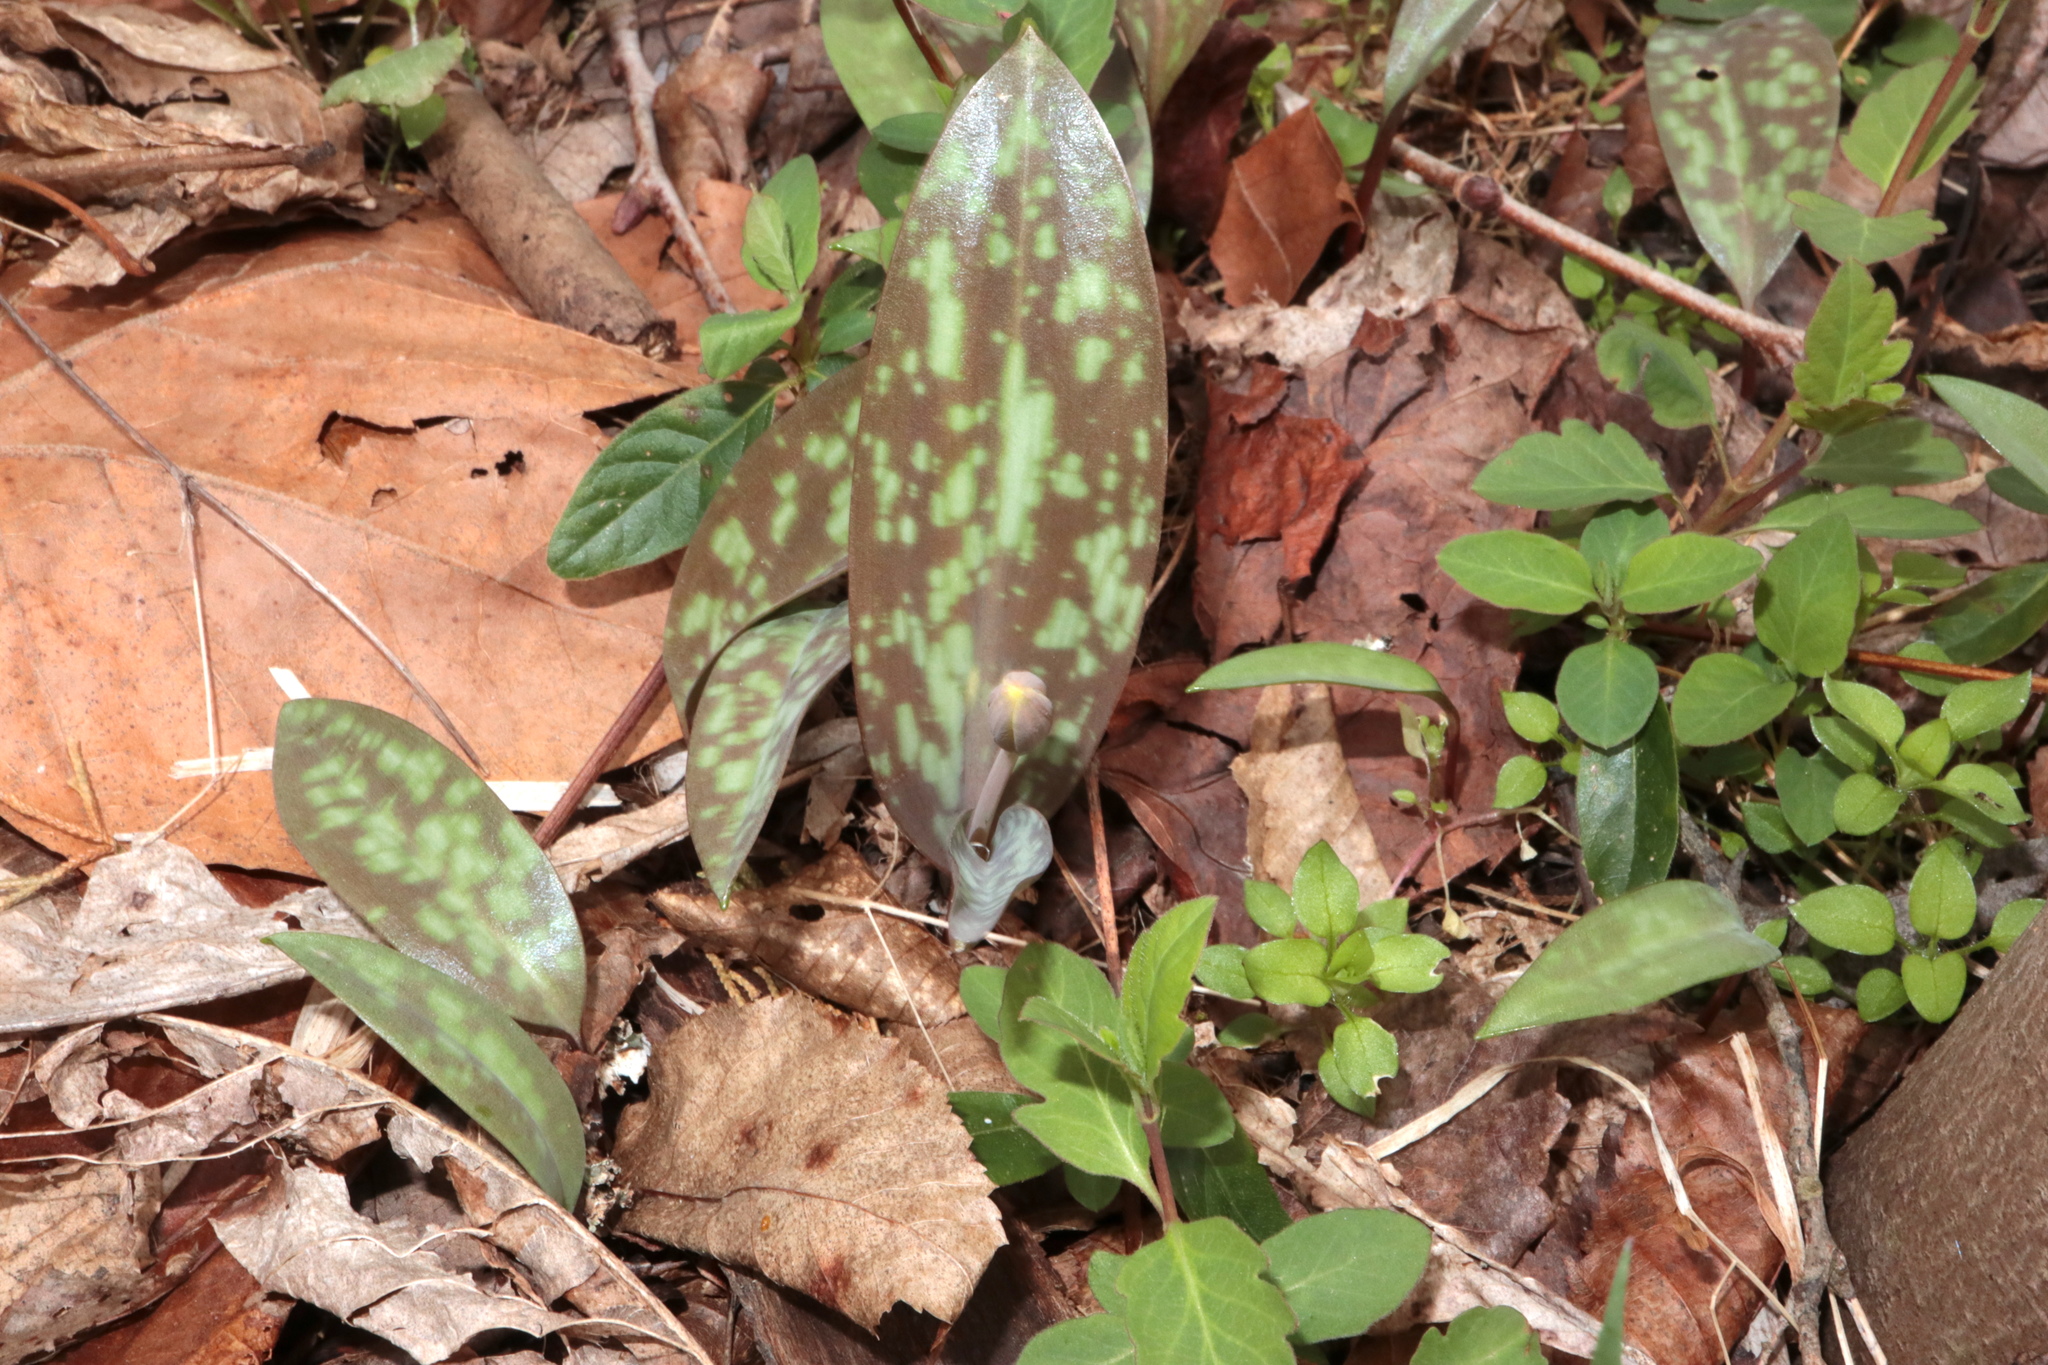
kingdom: Plantae
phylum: Tracheophyta
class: Liliopsida
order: Liliales
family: Liliaceae
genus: Erythronium
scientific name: Erythronium americanum
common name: Yellow adder's-tongue
